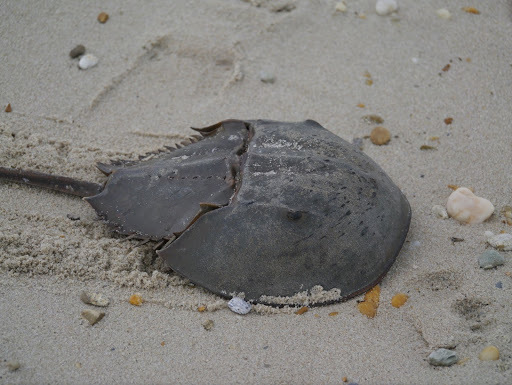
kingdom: Animalia
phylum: Arthropoda
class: Merostomata
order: Xiphosurida
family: Limulidae
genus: Limulus
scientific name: Limulus polyphemus
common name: Horseshoe crab
